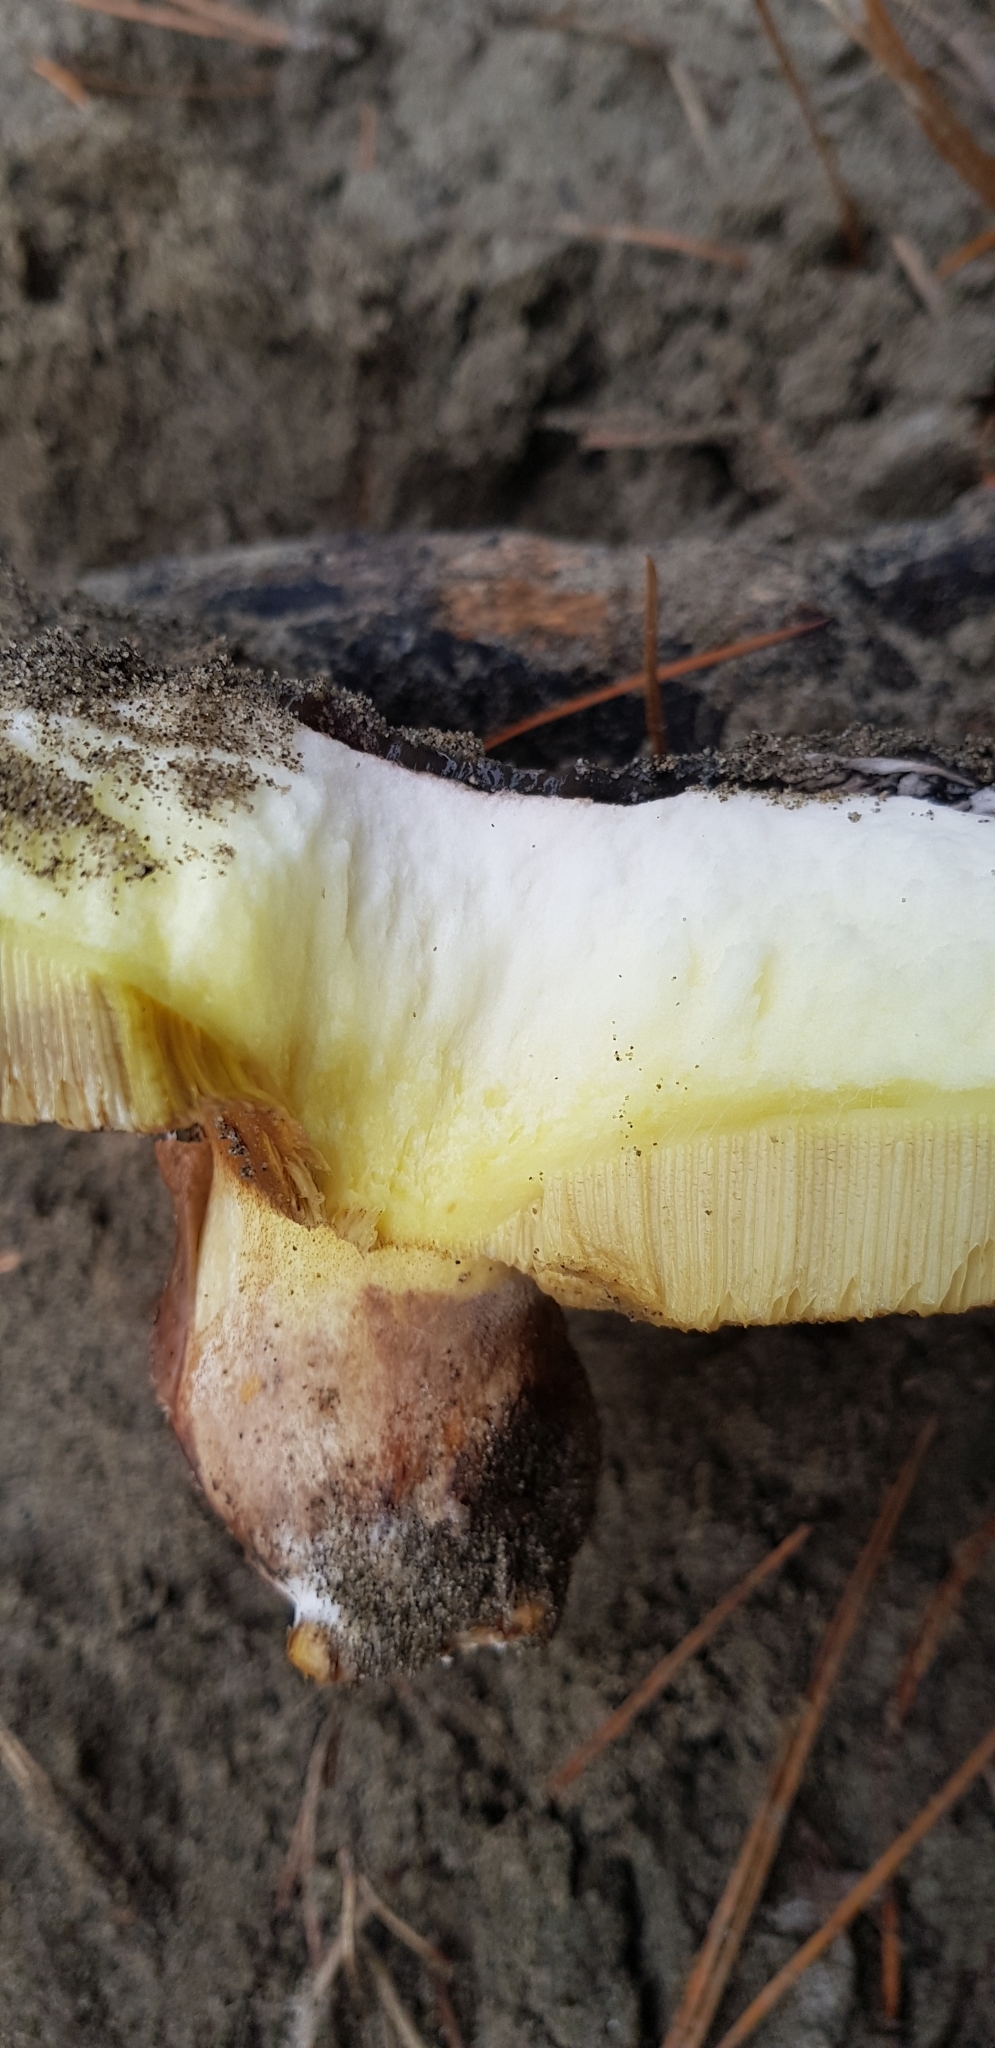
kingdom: Fungi
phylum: Basidiomycota
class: Agaricomycetes
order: Boletales
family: Suillaceae
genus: Suillus
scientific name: Suillus pungens
